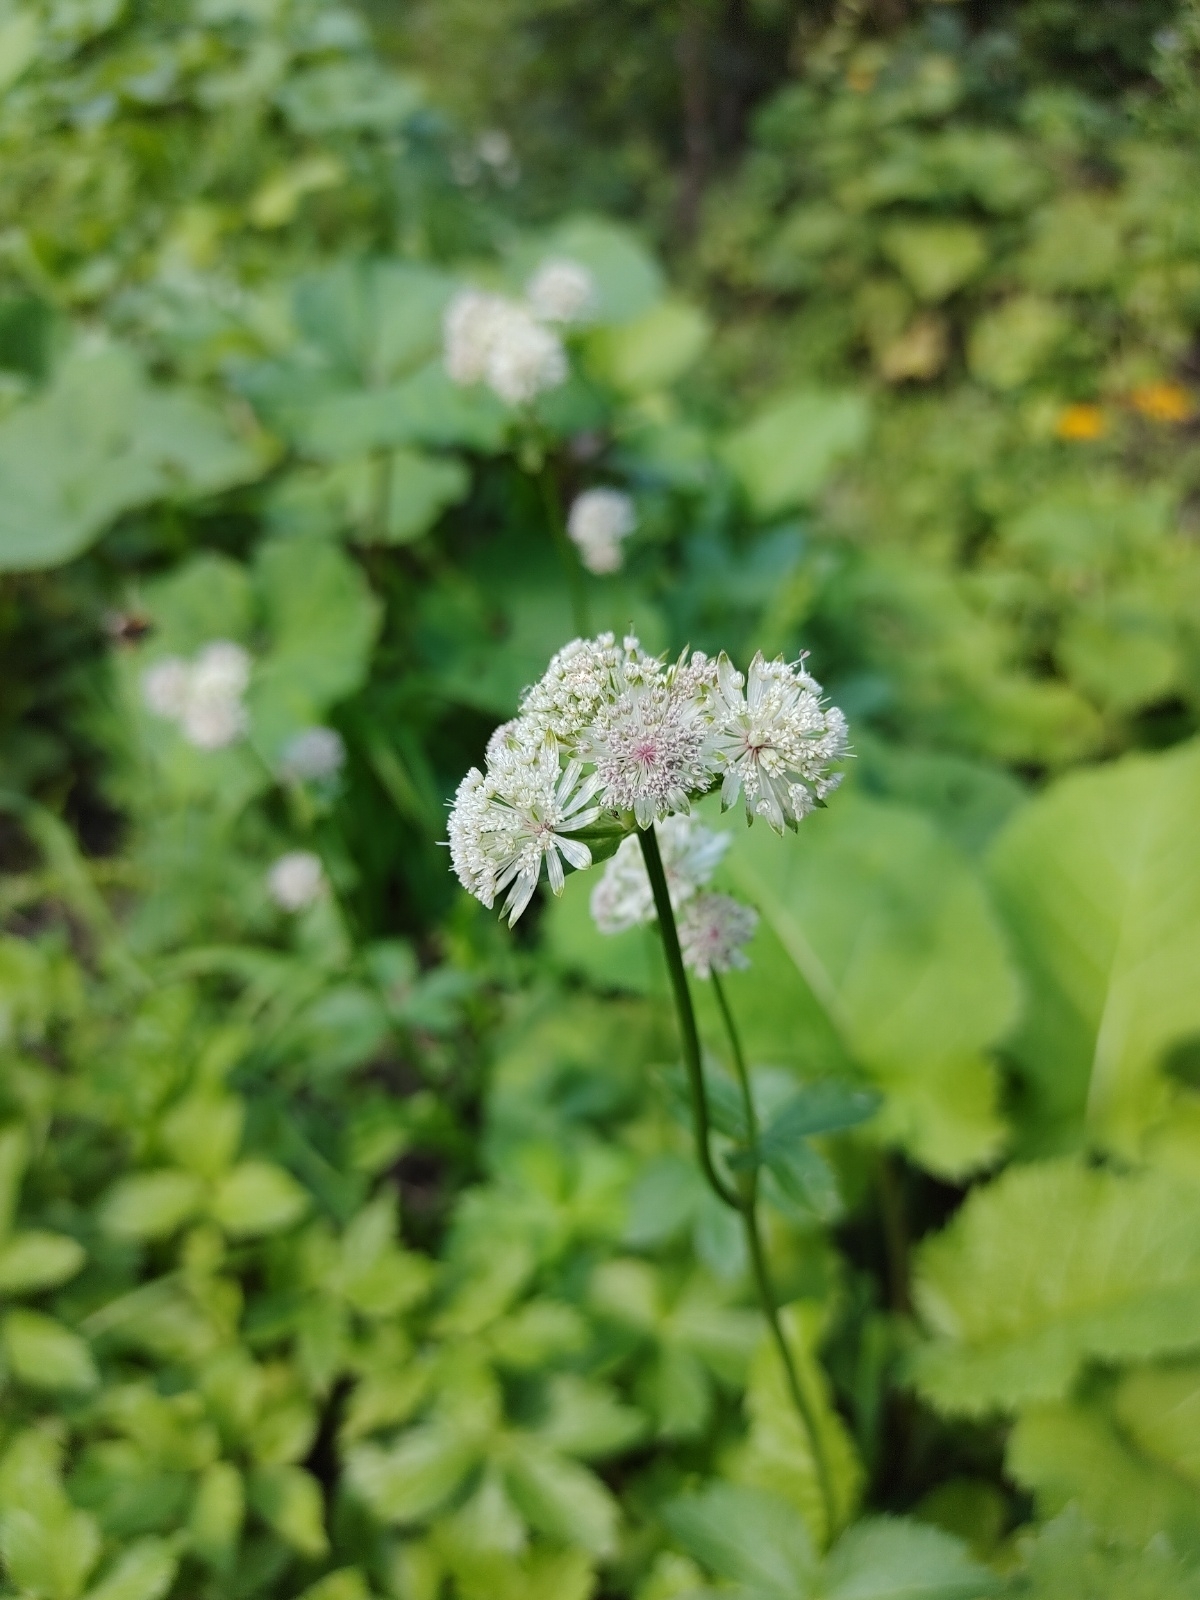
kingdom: Plantae
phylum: Tracheophyta
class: Magnoliopsida
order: Apiales
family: Apiaceae
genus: Astrantia
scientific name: Astrantia major
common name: Greater masterwort
